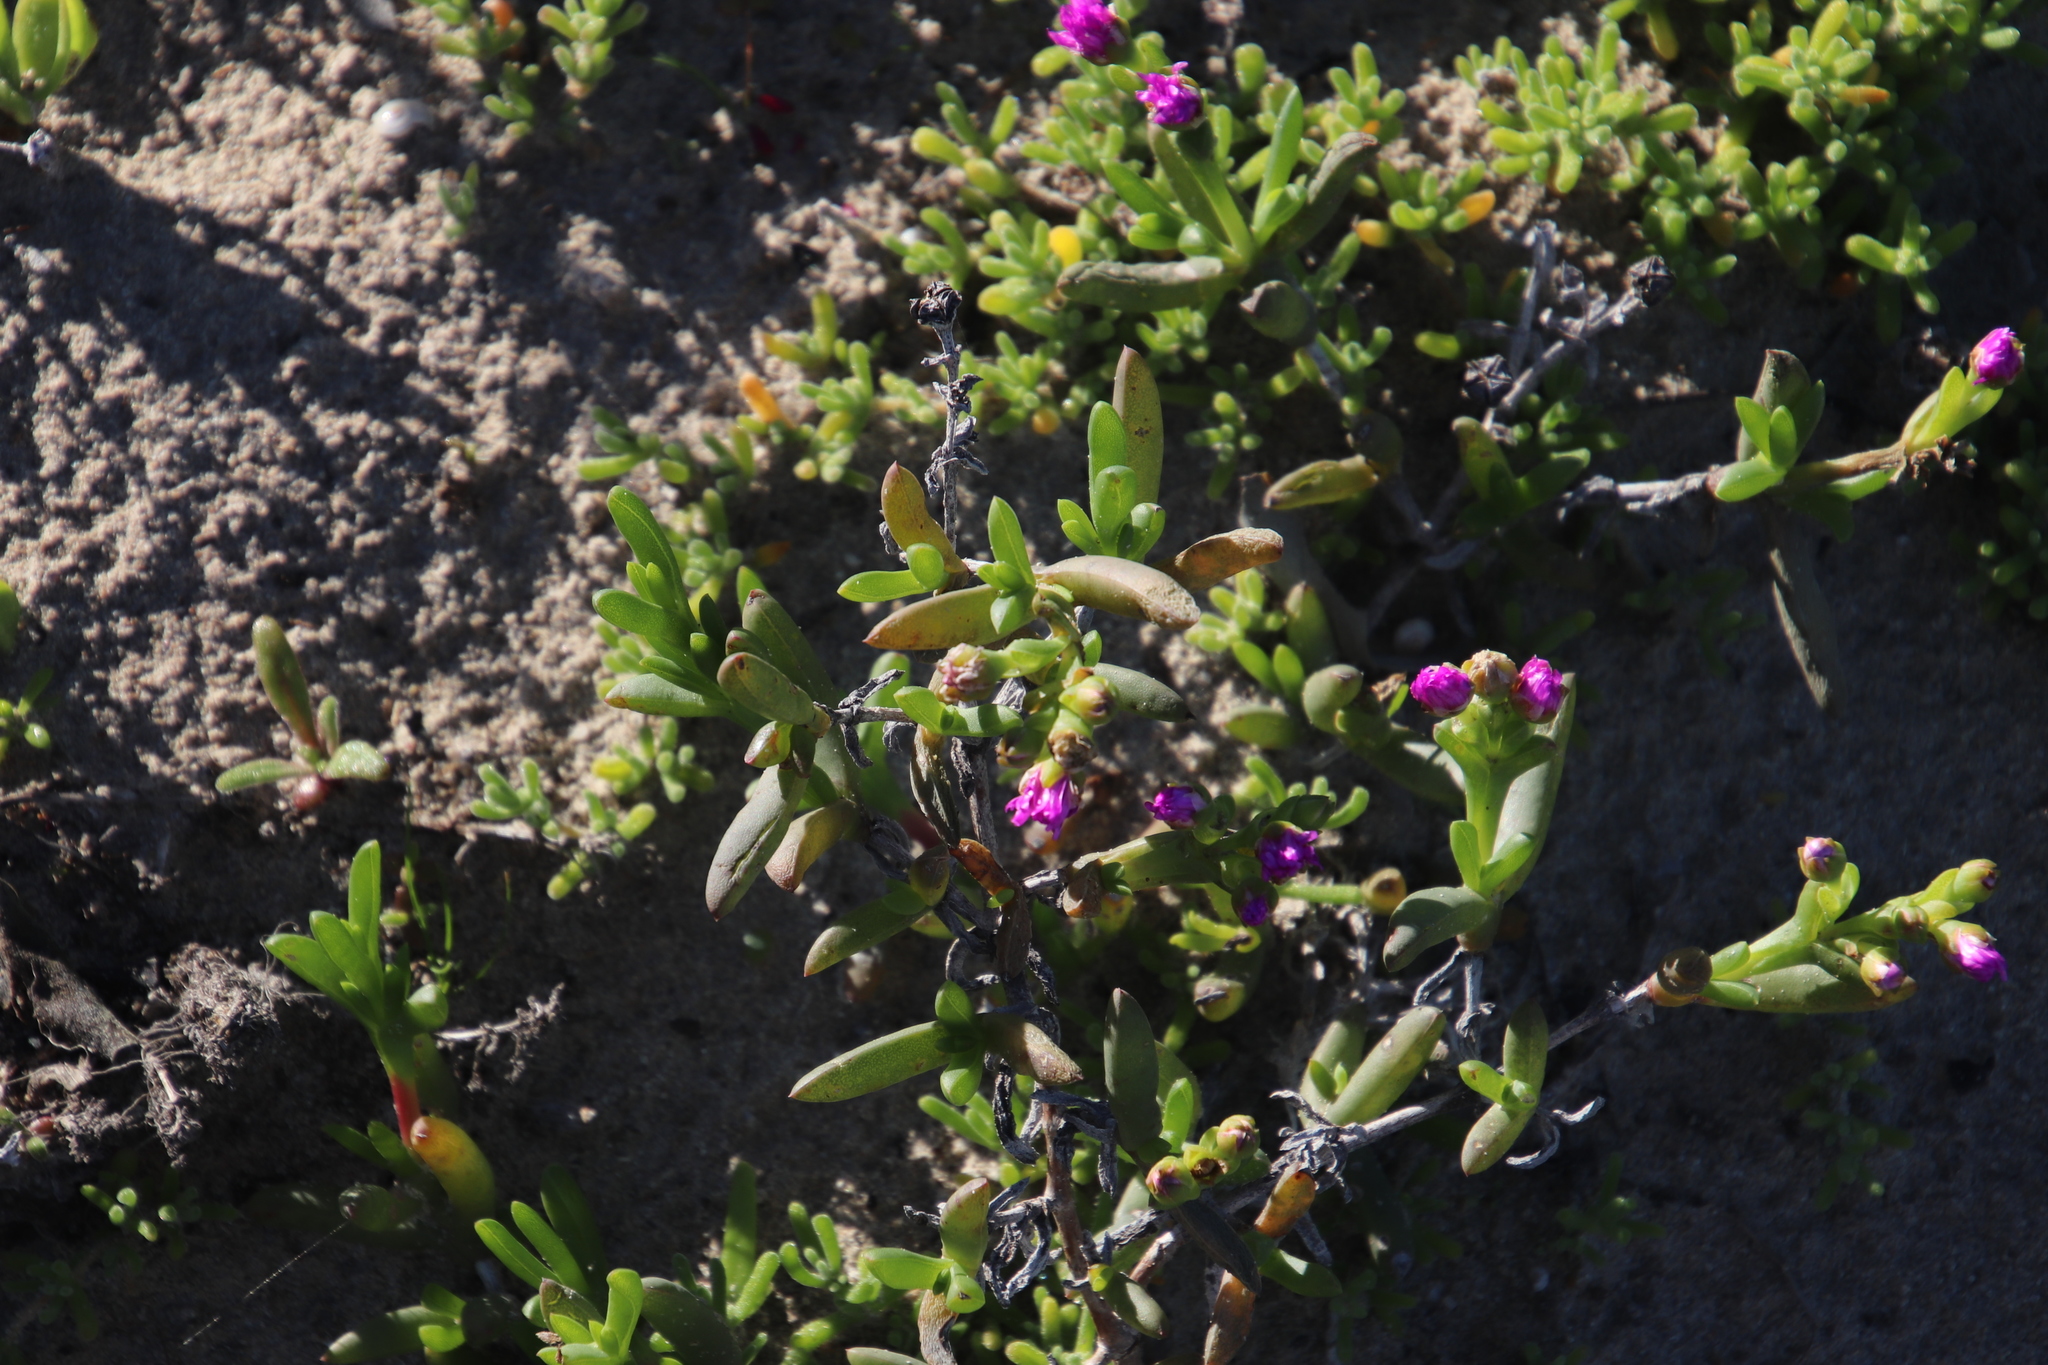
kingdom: Plantae
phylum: Tracheophyta
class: Magnoliopsida
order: Caryophyllales
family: Aizoaceae
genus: Ruschia
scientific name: Ruschia langebaanensis
